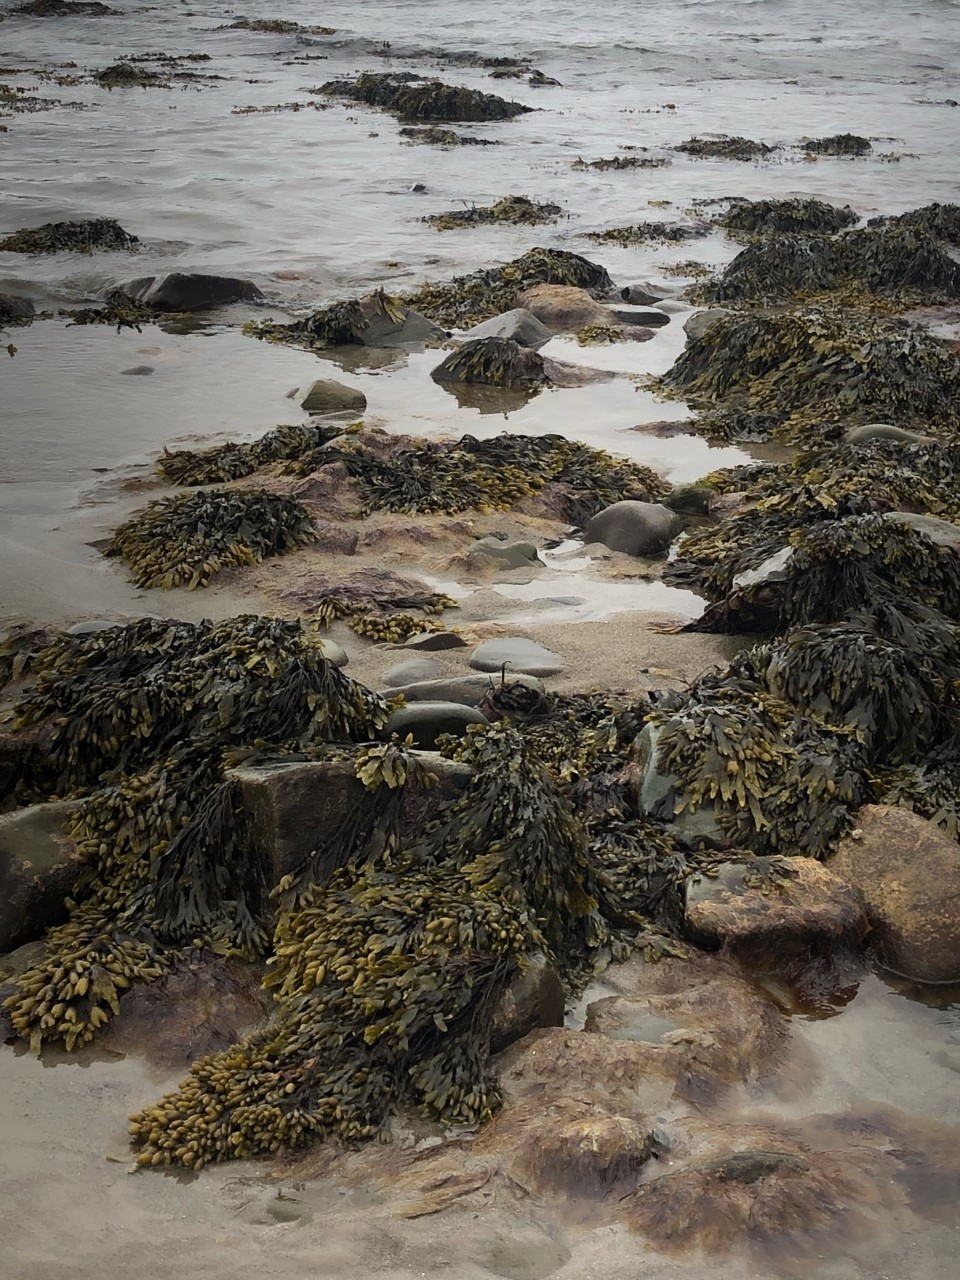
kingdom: Chromista
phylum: Ochrophyta
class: Phaeophyceae
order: Fucales
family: Fucaceae
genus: Fucus
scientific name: Fucus vesiculosus
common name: Bladder wrack
